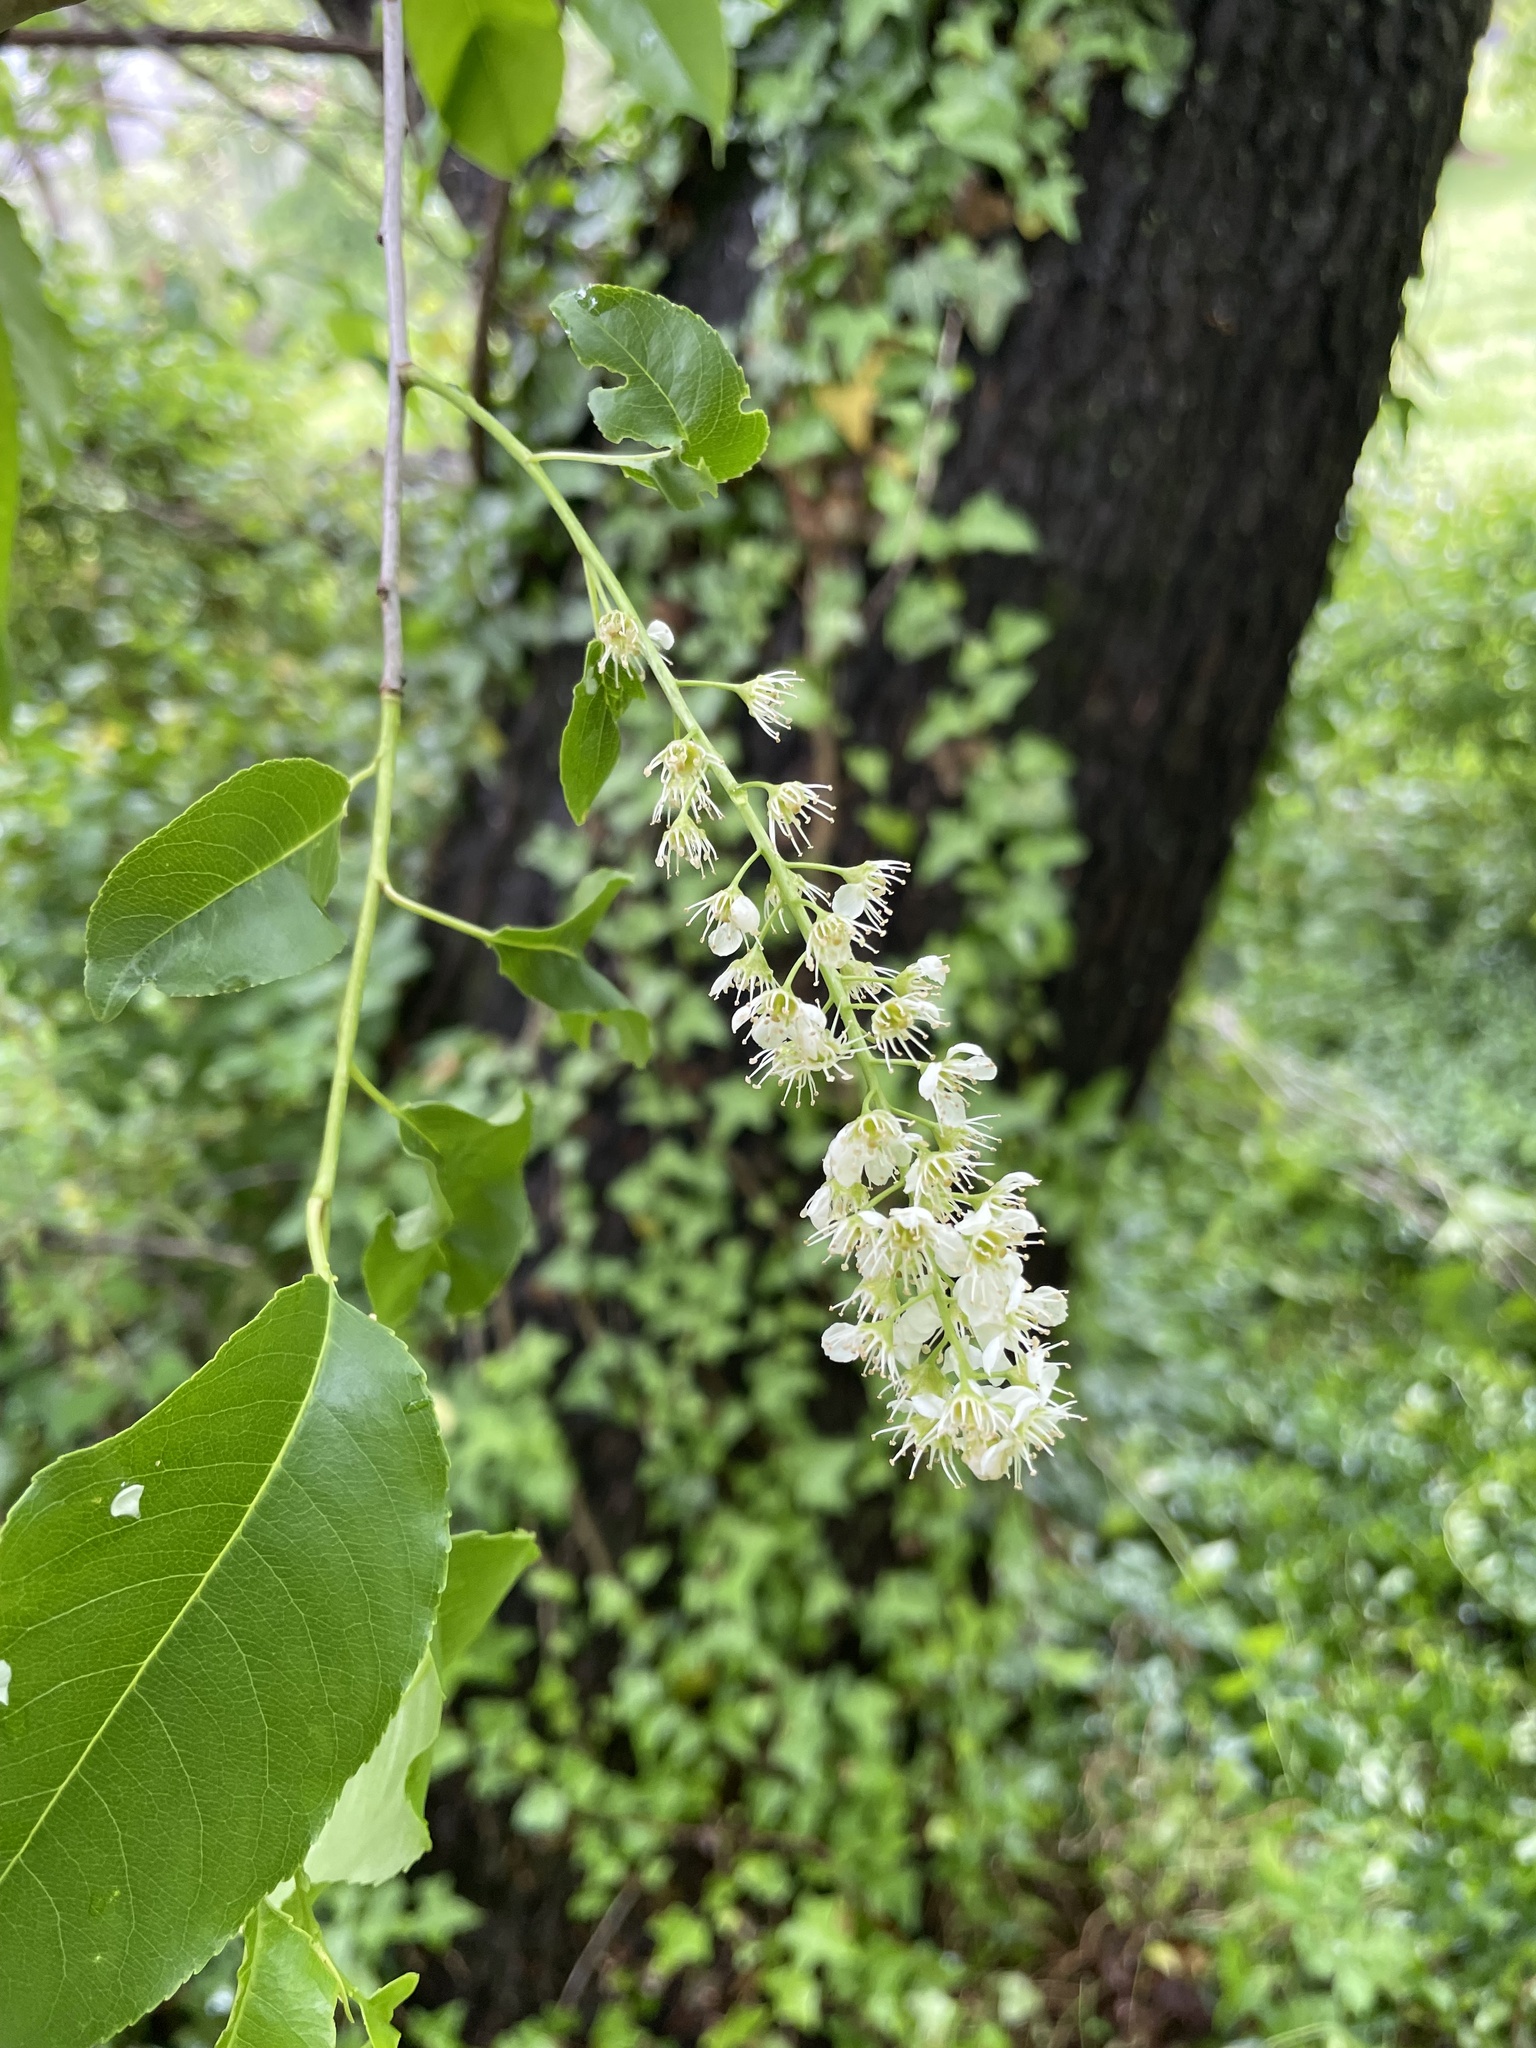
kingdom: Plantae
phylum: Tracheophyta
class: Magnoliopsida
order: Rosales
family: Rosaceae
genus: Prunus
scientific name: Prunus serotina
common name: Black cherry
